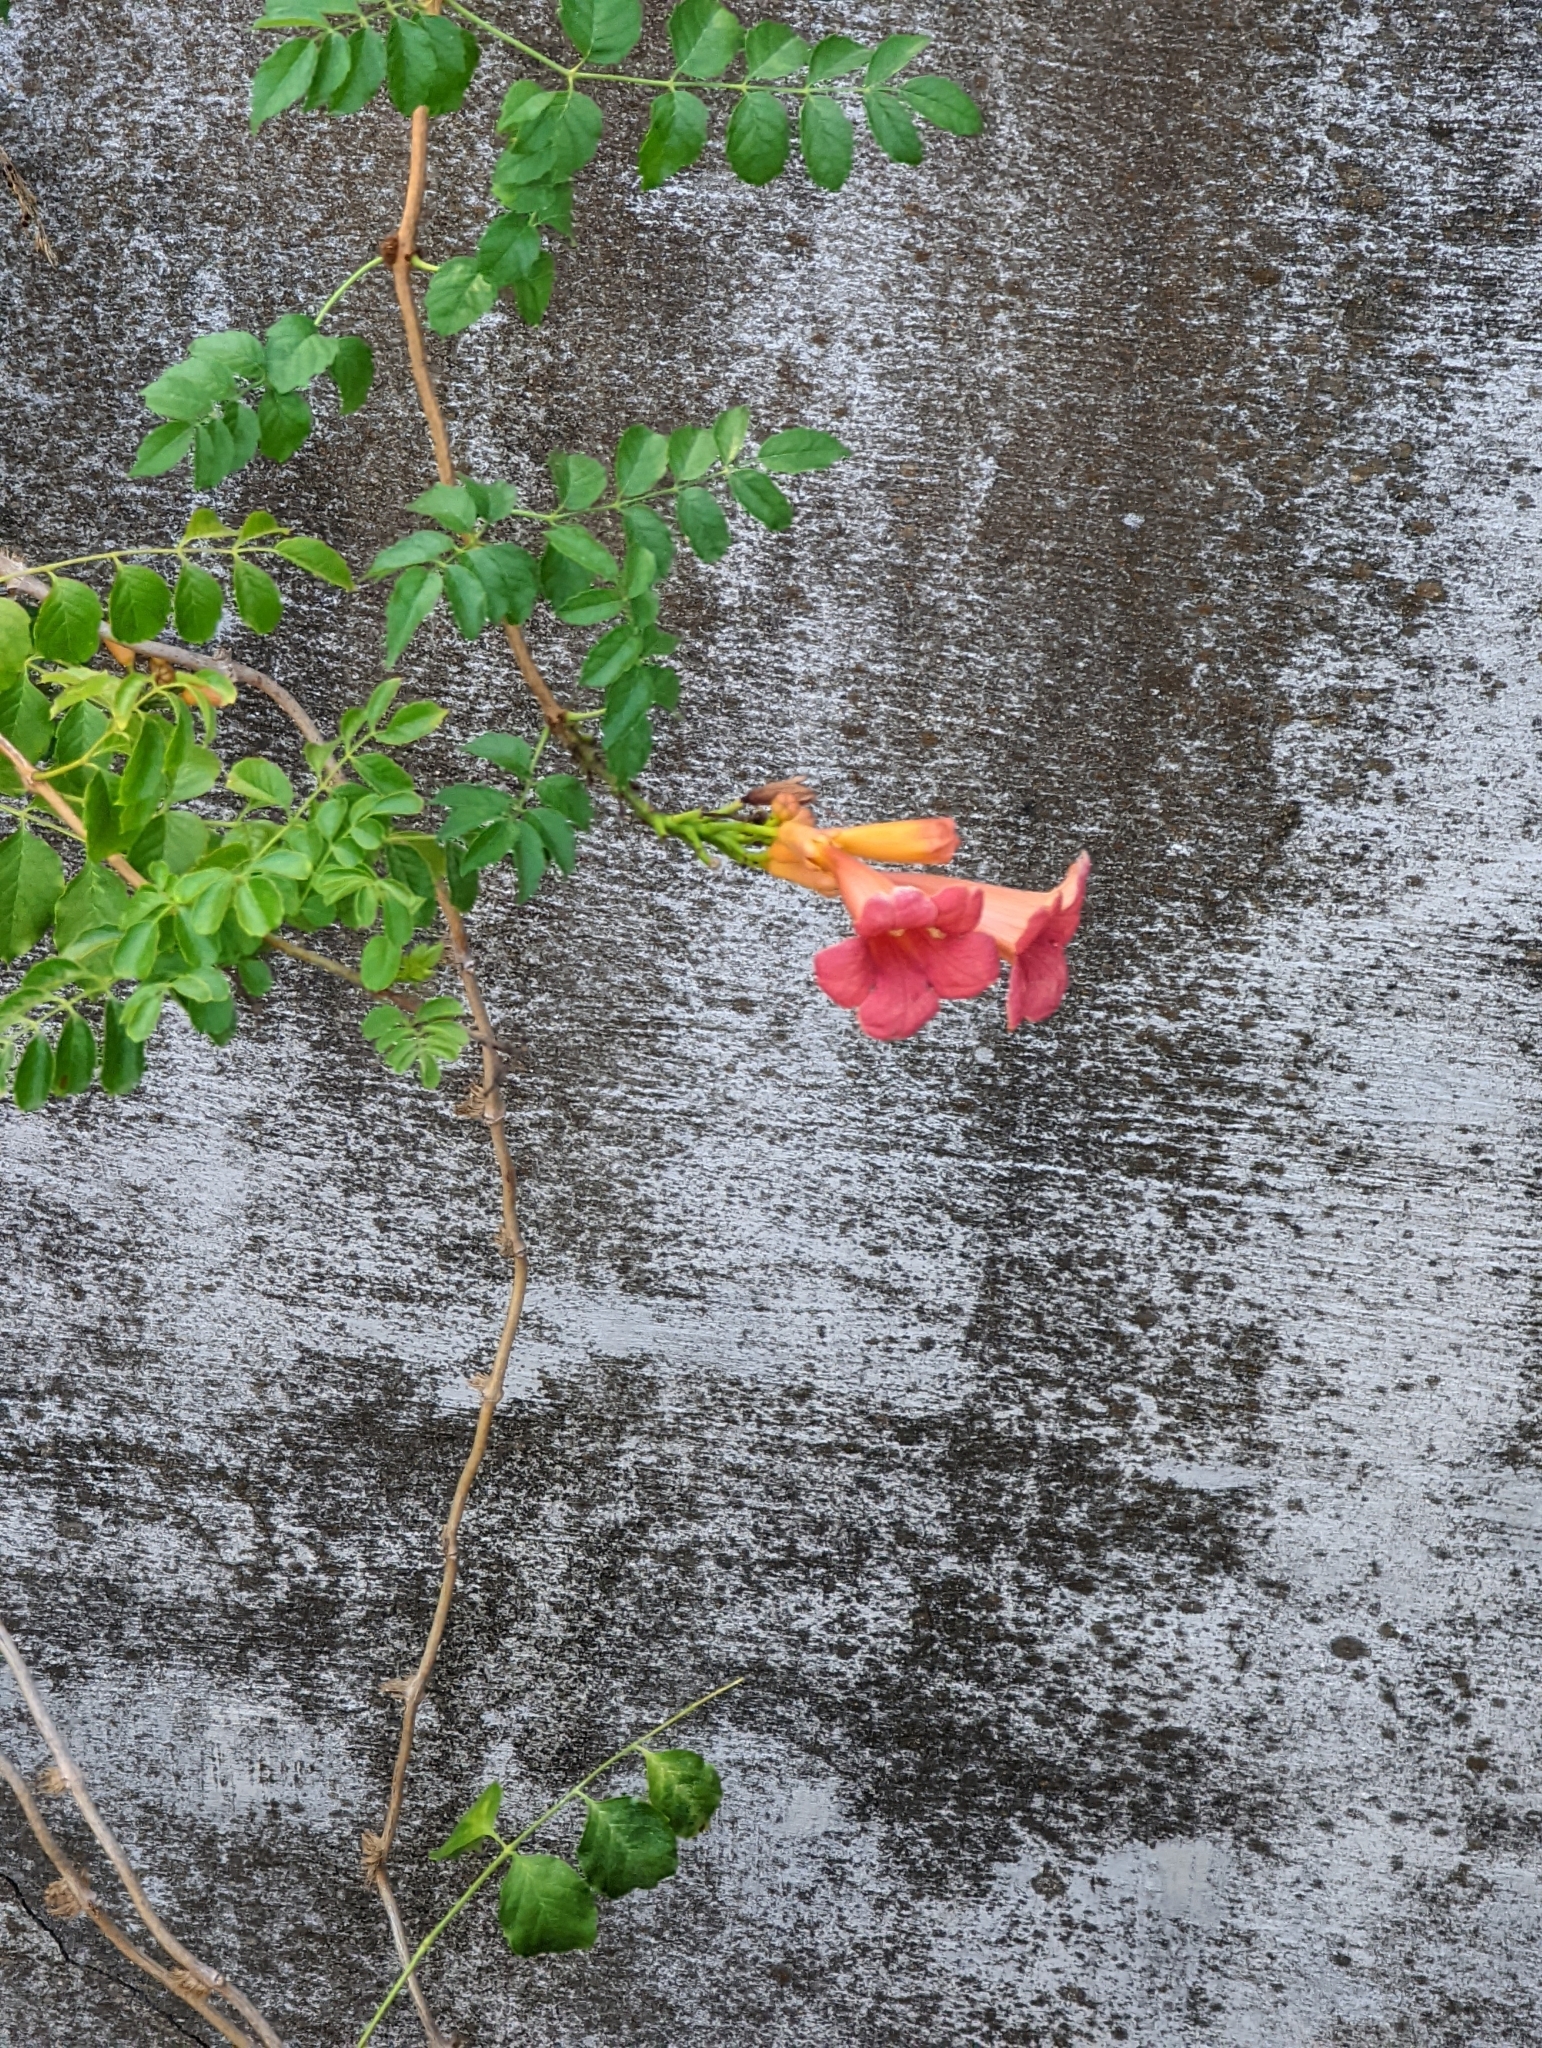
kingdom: Plantae
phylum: Tracheophyta
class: Magnoliopsida
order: Lamiales
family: Bignoniaceae
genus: Campsis
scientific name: Campsis radicans
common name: Trumpet-creeper
